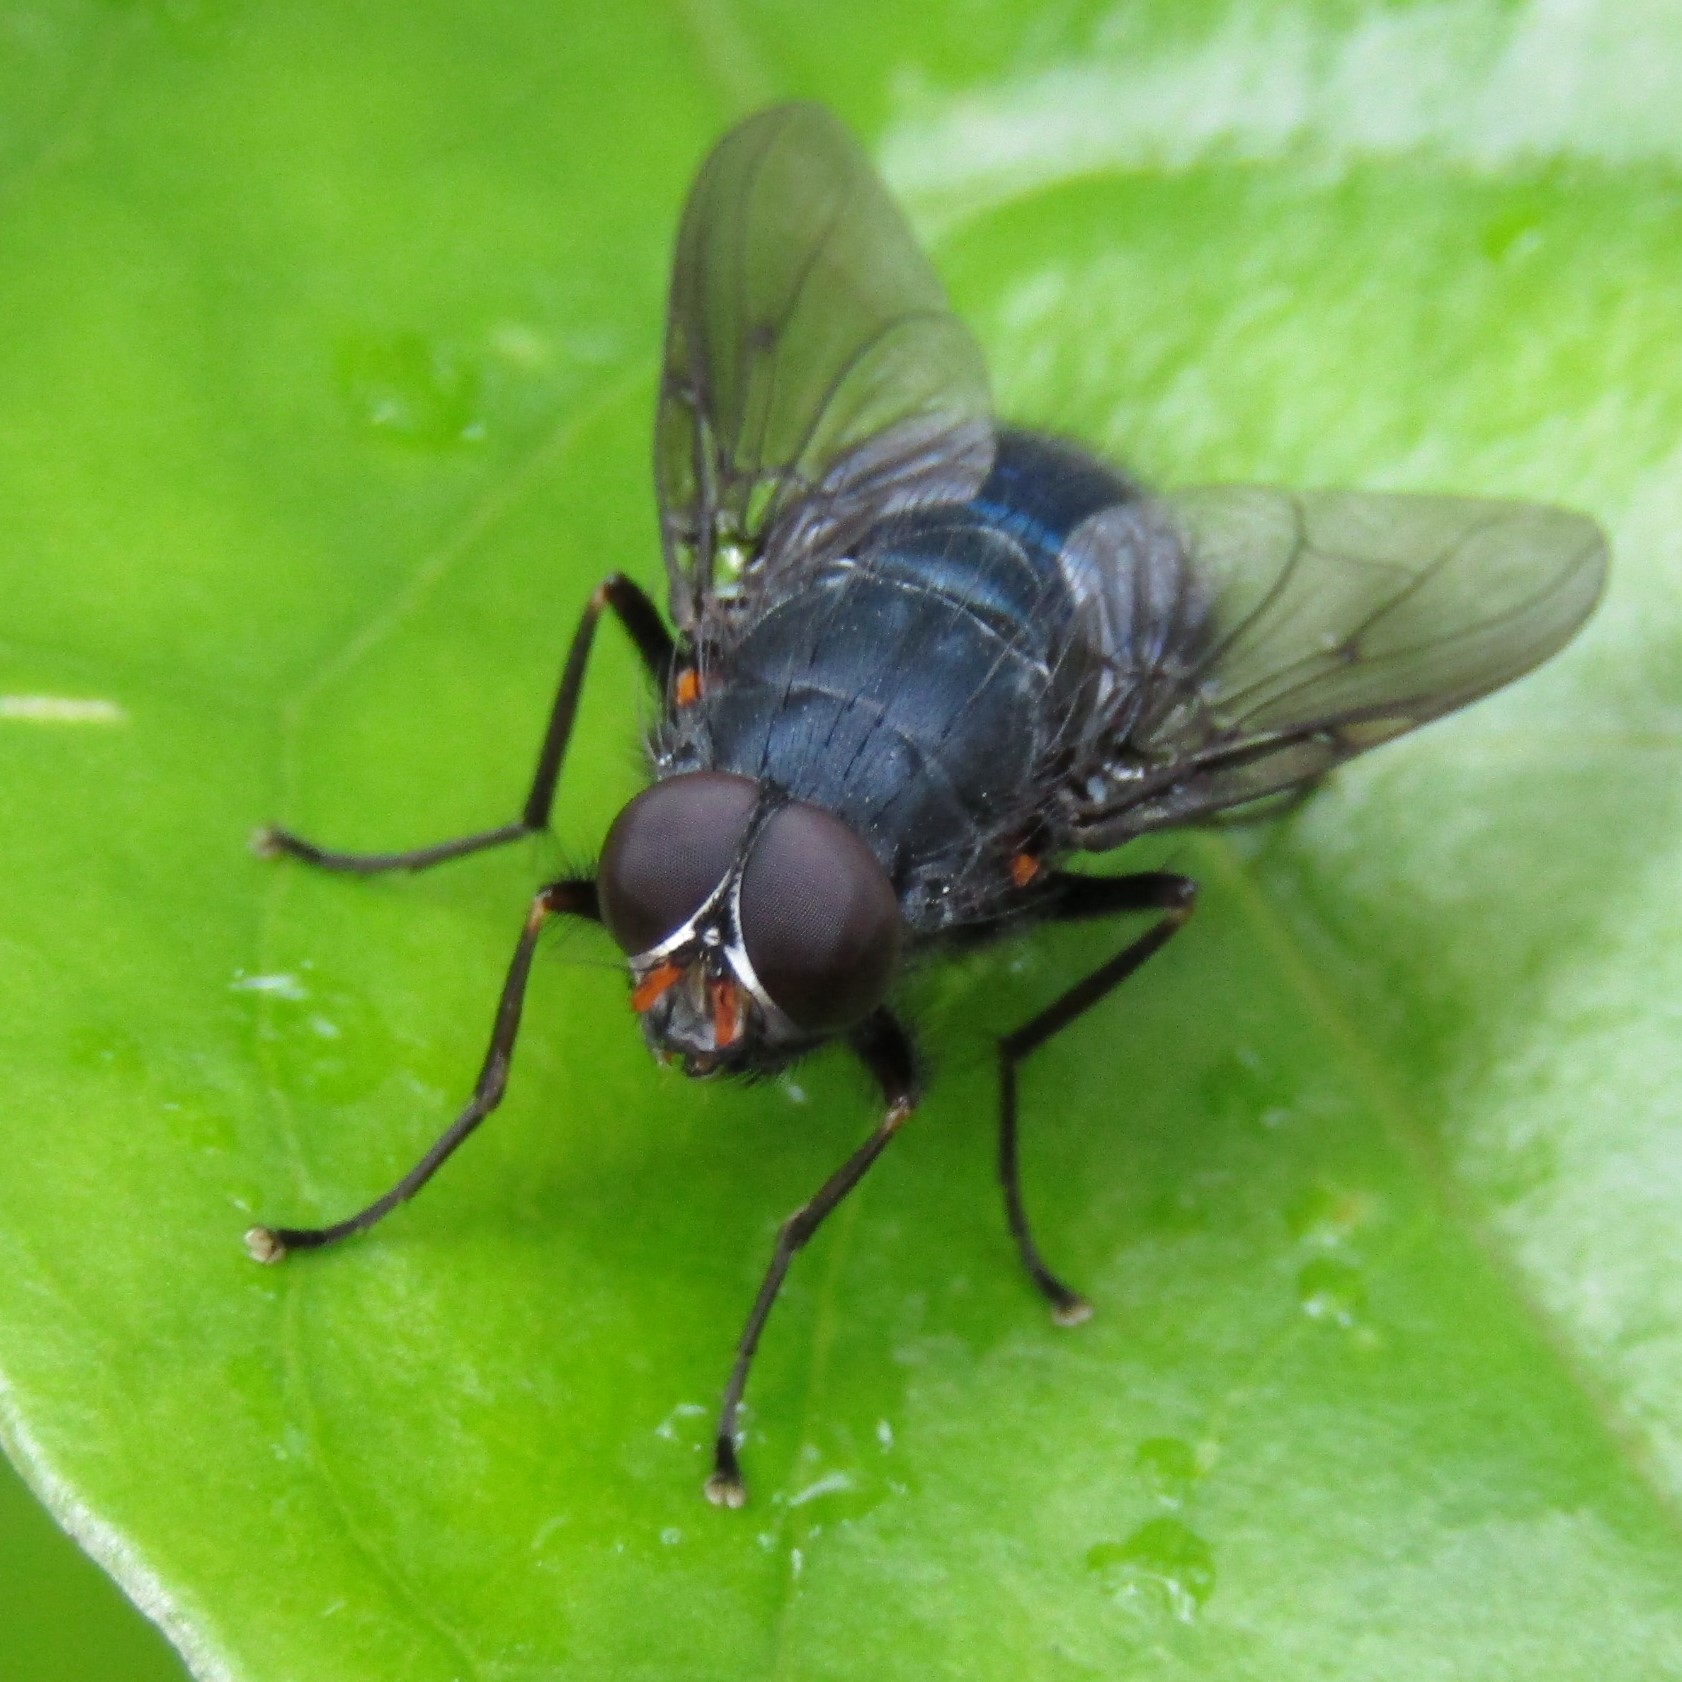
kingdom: Animalia
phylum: Arthropoda
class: Insecta
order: Diptera
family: Muscidae
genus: Calliphoroides
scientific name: Calliphoroides antennatis
